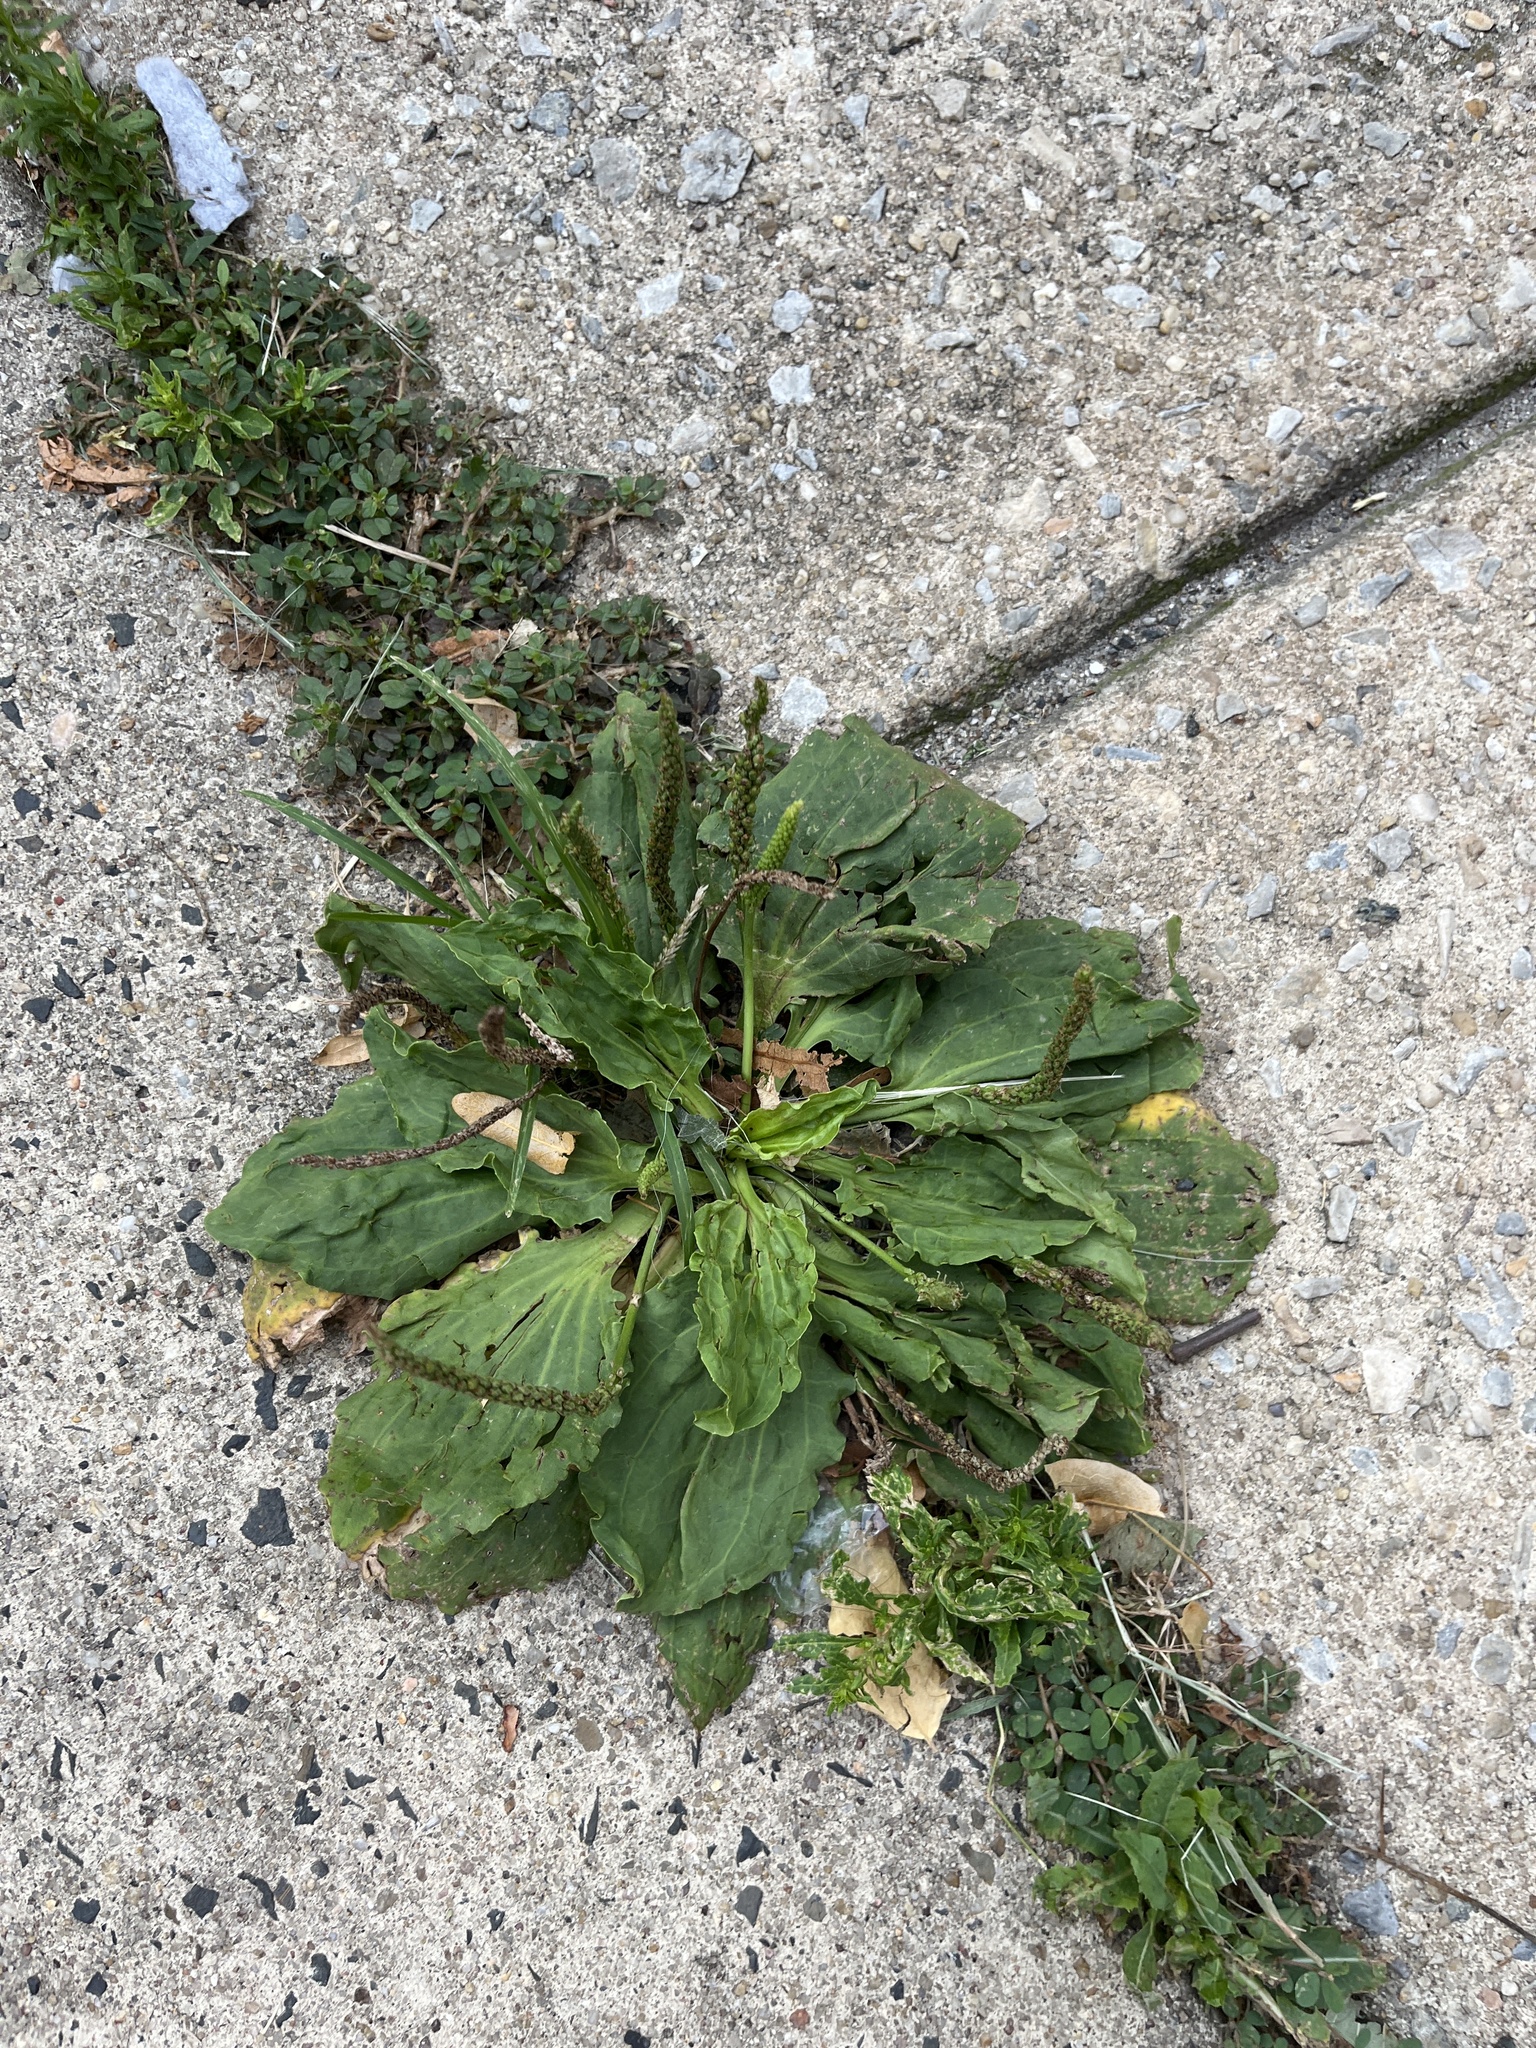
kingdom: Plantae
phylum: Tracheophyta
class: Magnoliopsida
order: Lamiales
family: Plantaginaceae
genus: Plantago
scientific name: Plantago major
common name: Common plantain
